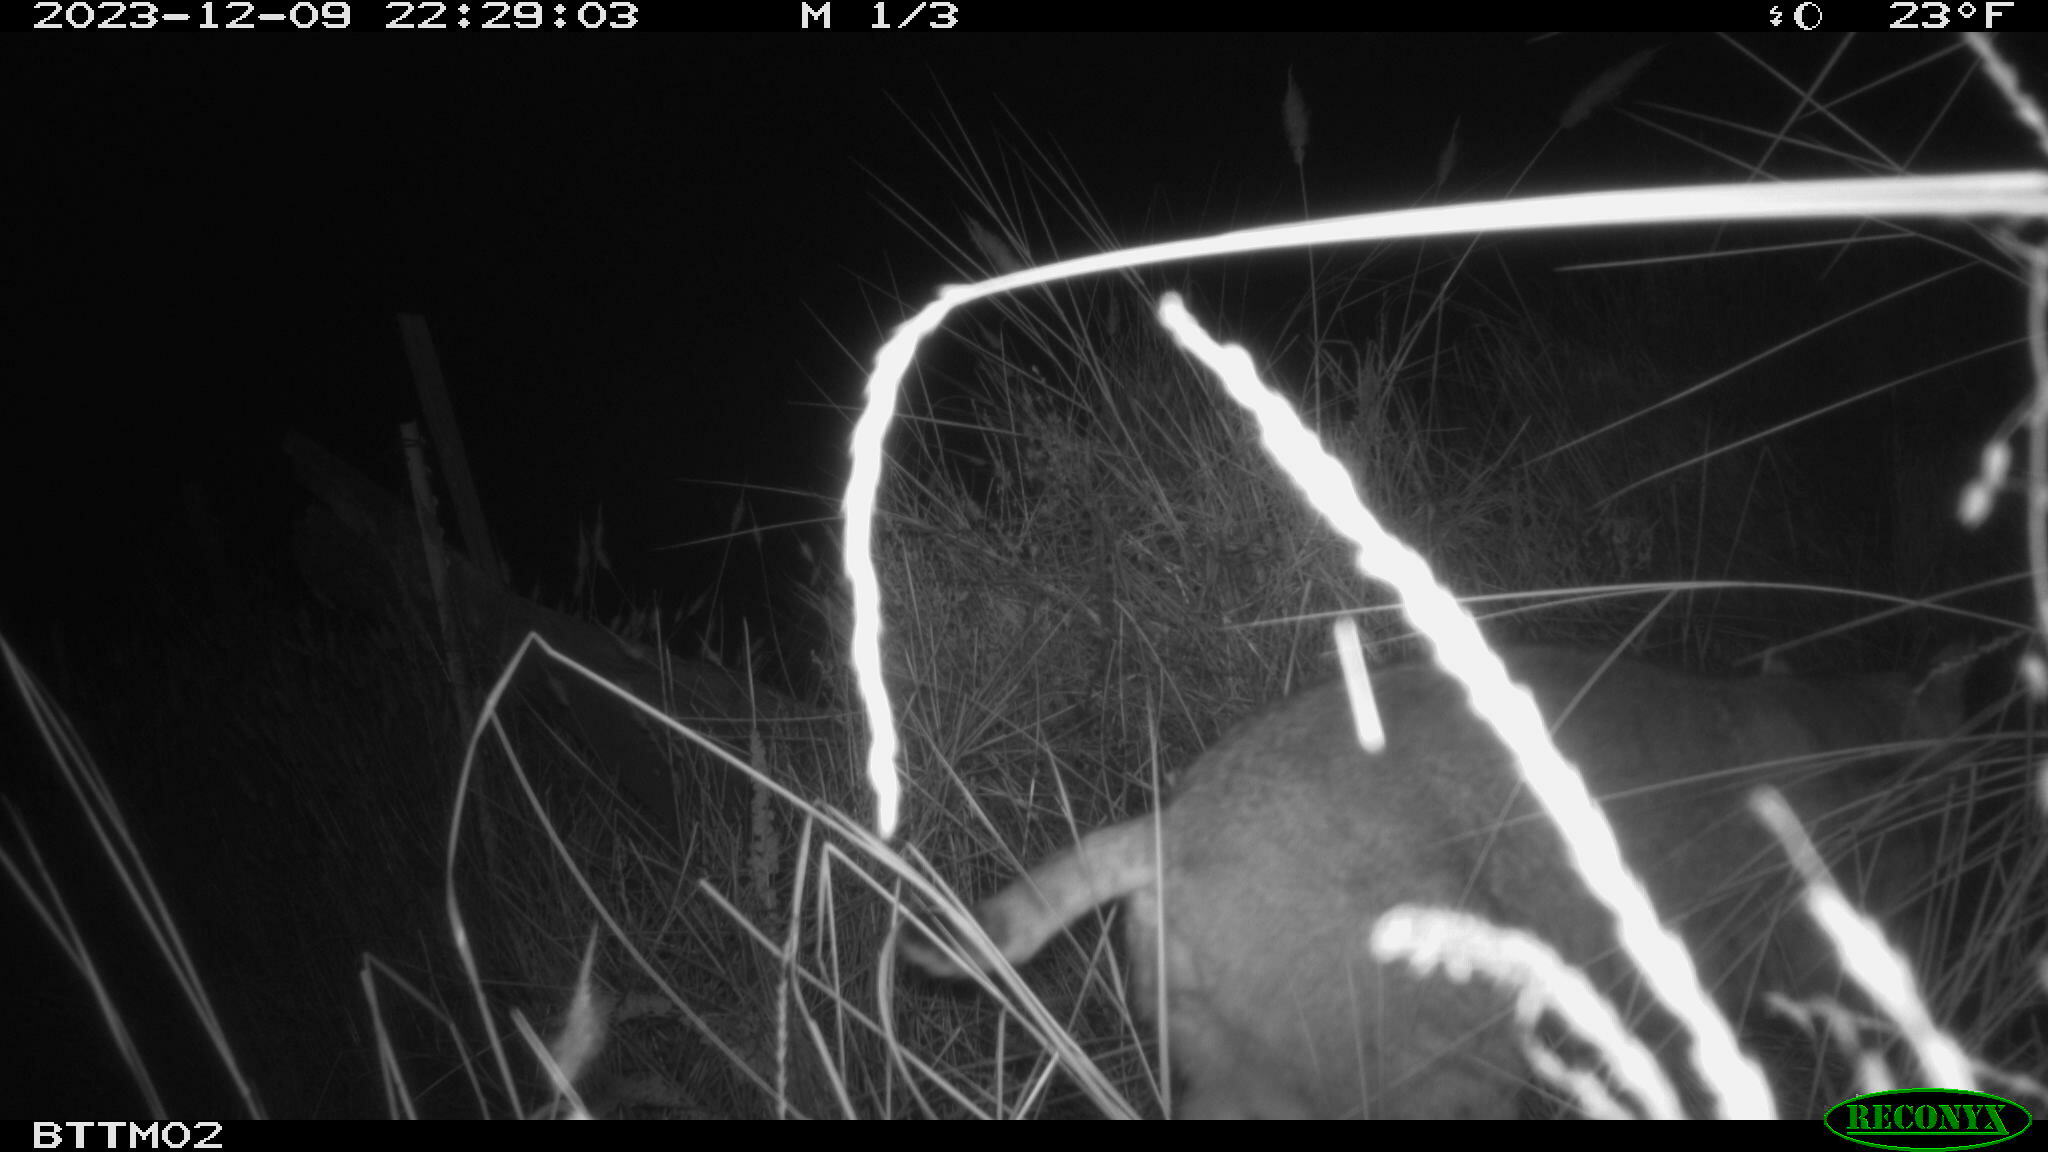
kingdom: Animalia
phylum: Chordata
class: Mammalia
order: Carnivora
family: Felidae
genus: Lynx
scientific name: Lynx rufus
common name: Bobcat
